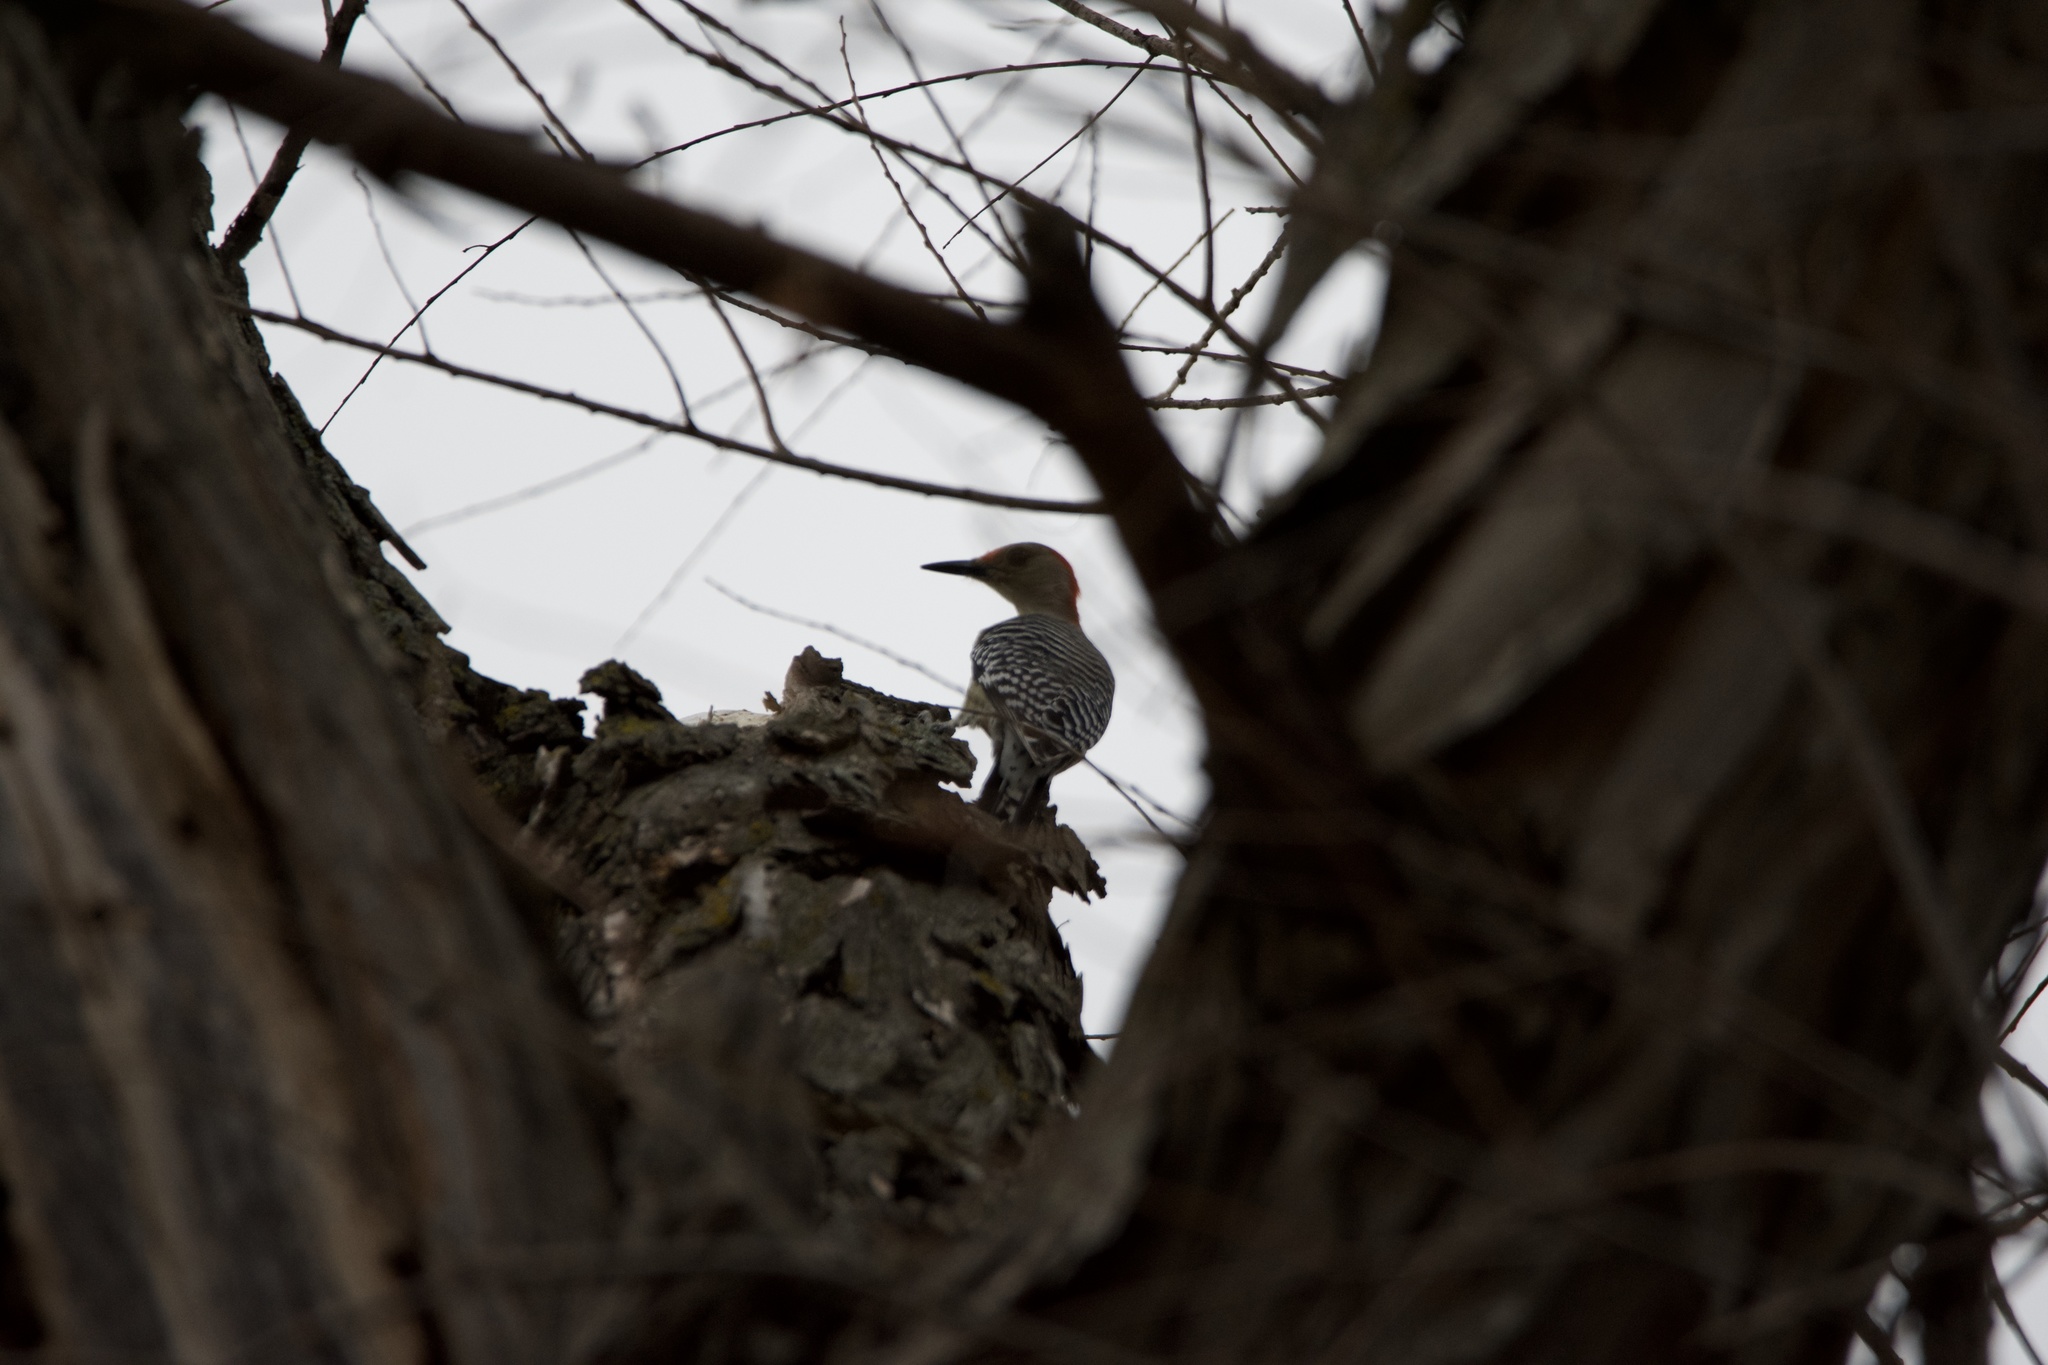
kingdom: Animalia
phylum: Chordata
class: Aves
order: Piciformes
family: Picidae
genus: Melanerpes
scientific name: Melanerpes carolinus
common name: Red-bellied woodpecker
